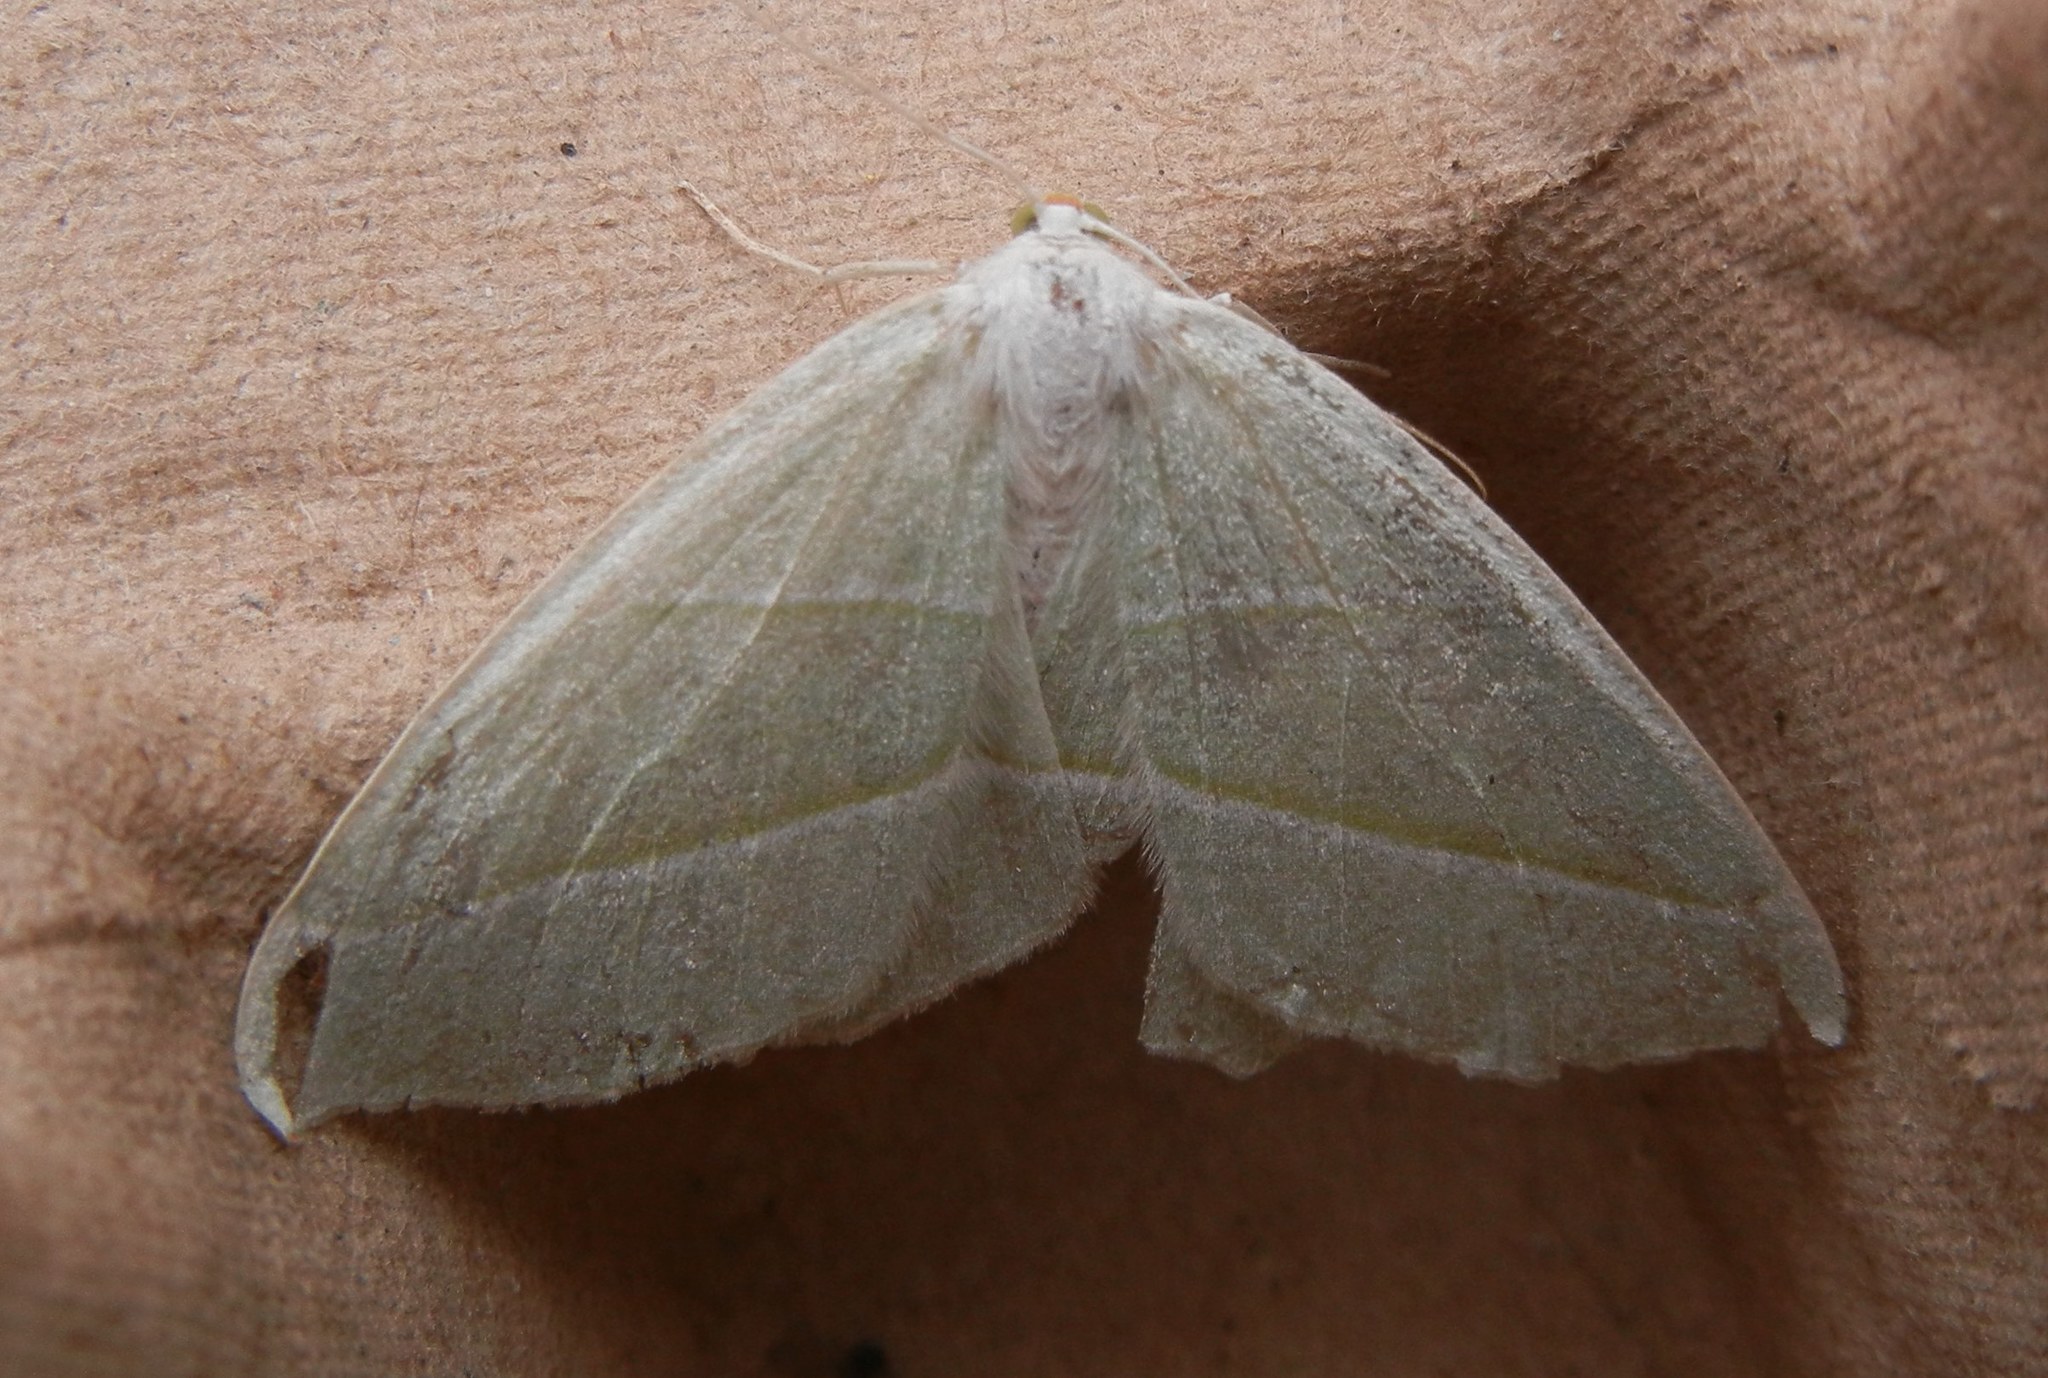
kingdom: Animalia
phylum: Arthropoda
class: Insecta
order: Lepidoptera
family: Geometridae
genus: Campaea
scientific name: Campaea margaritaria
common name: Light emerald
